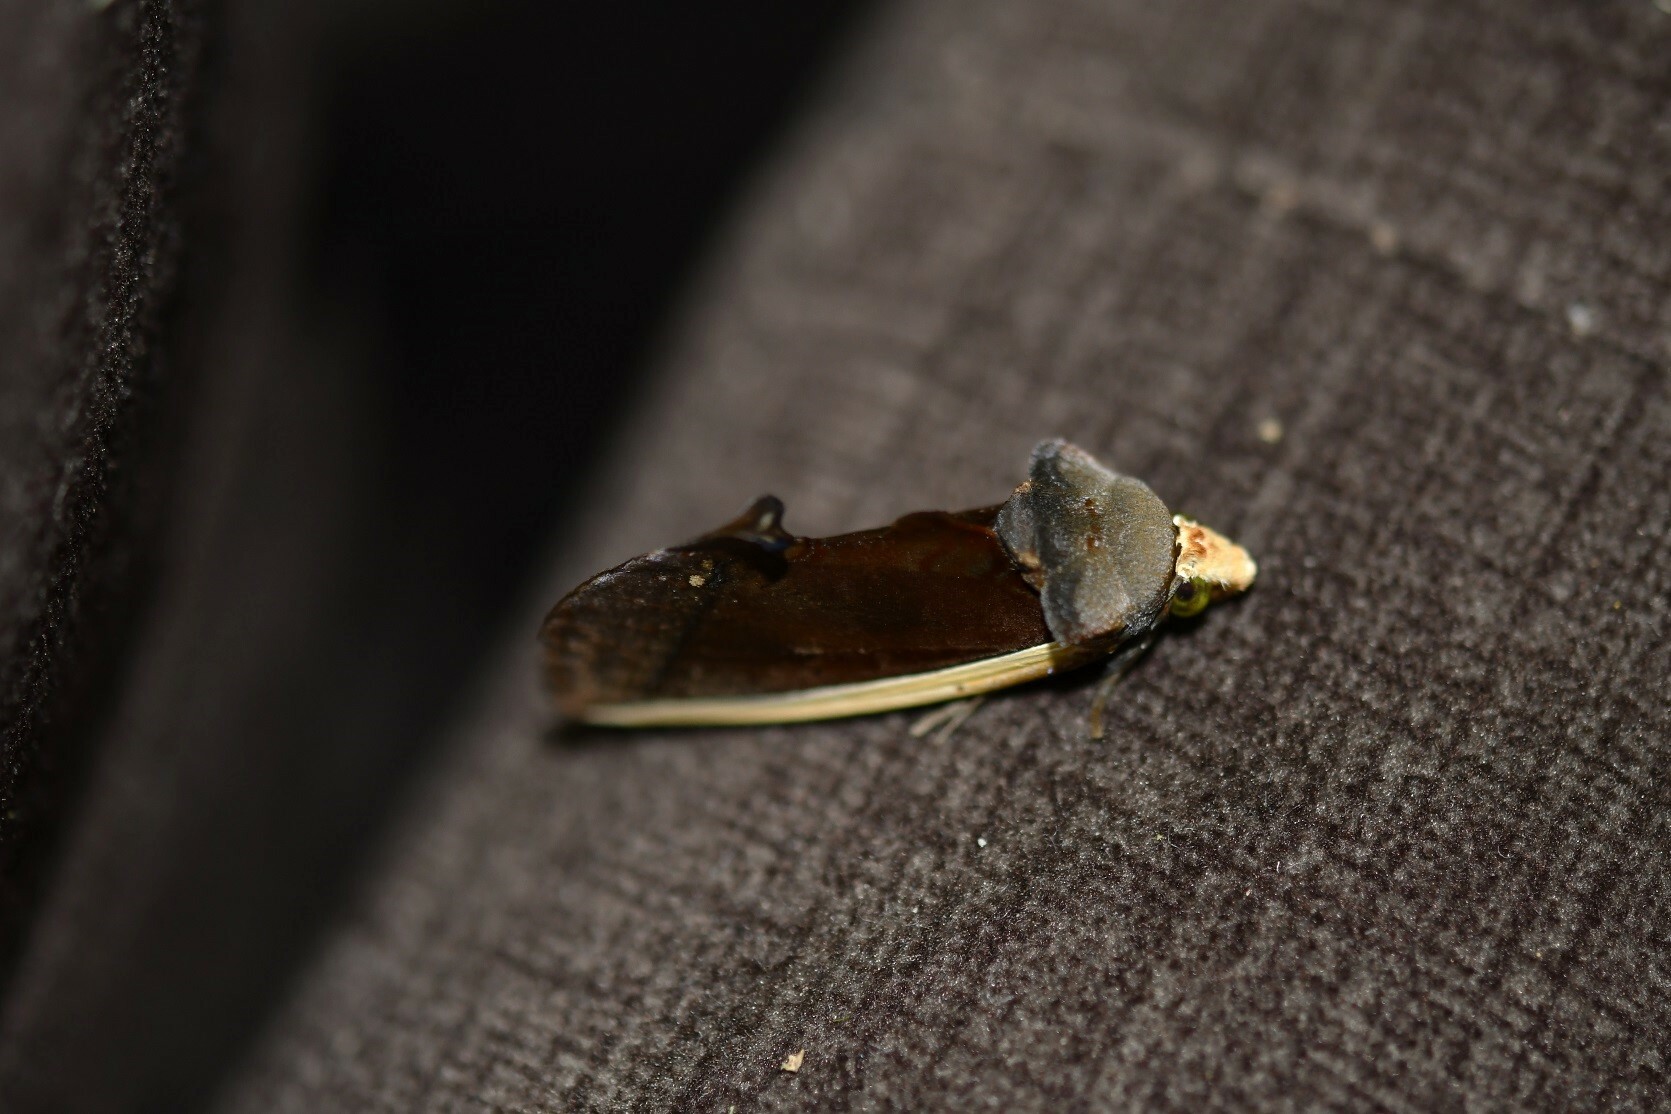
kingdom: Animalia
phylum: Arthropoda
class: Insecta
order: Lepidoptera
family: Erebidae
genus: Gonodonta
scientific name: Gonodonta pyrgo
